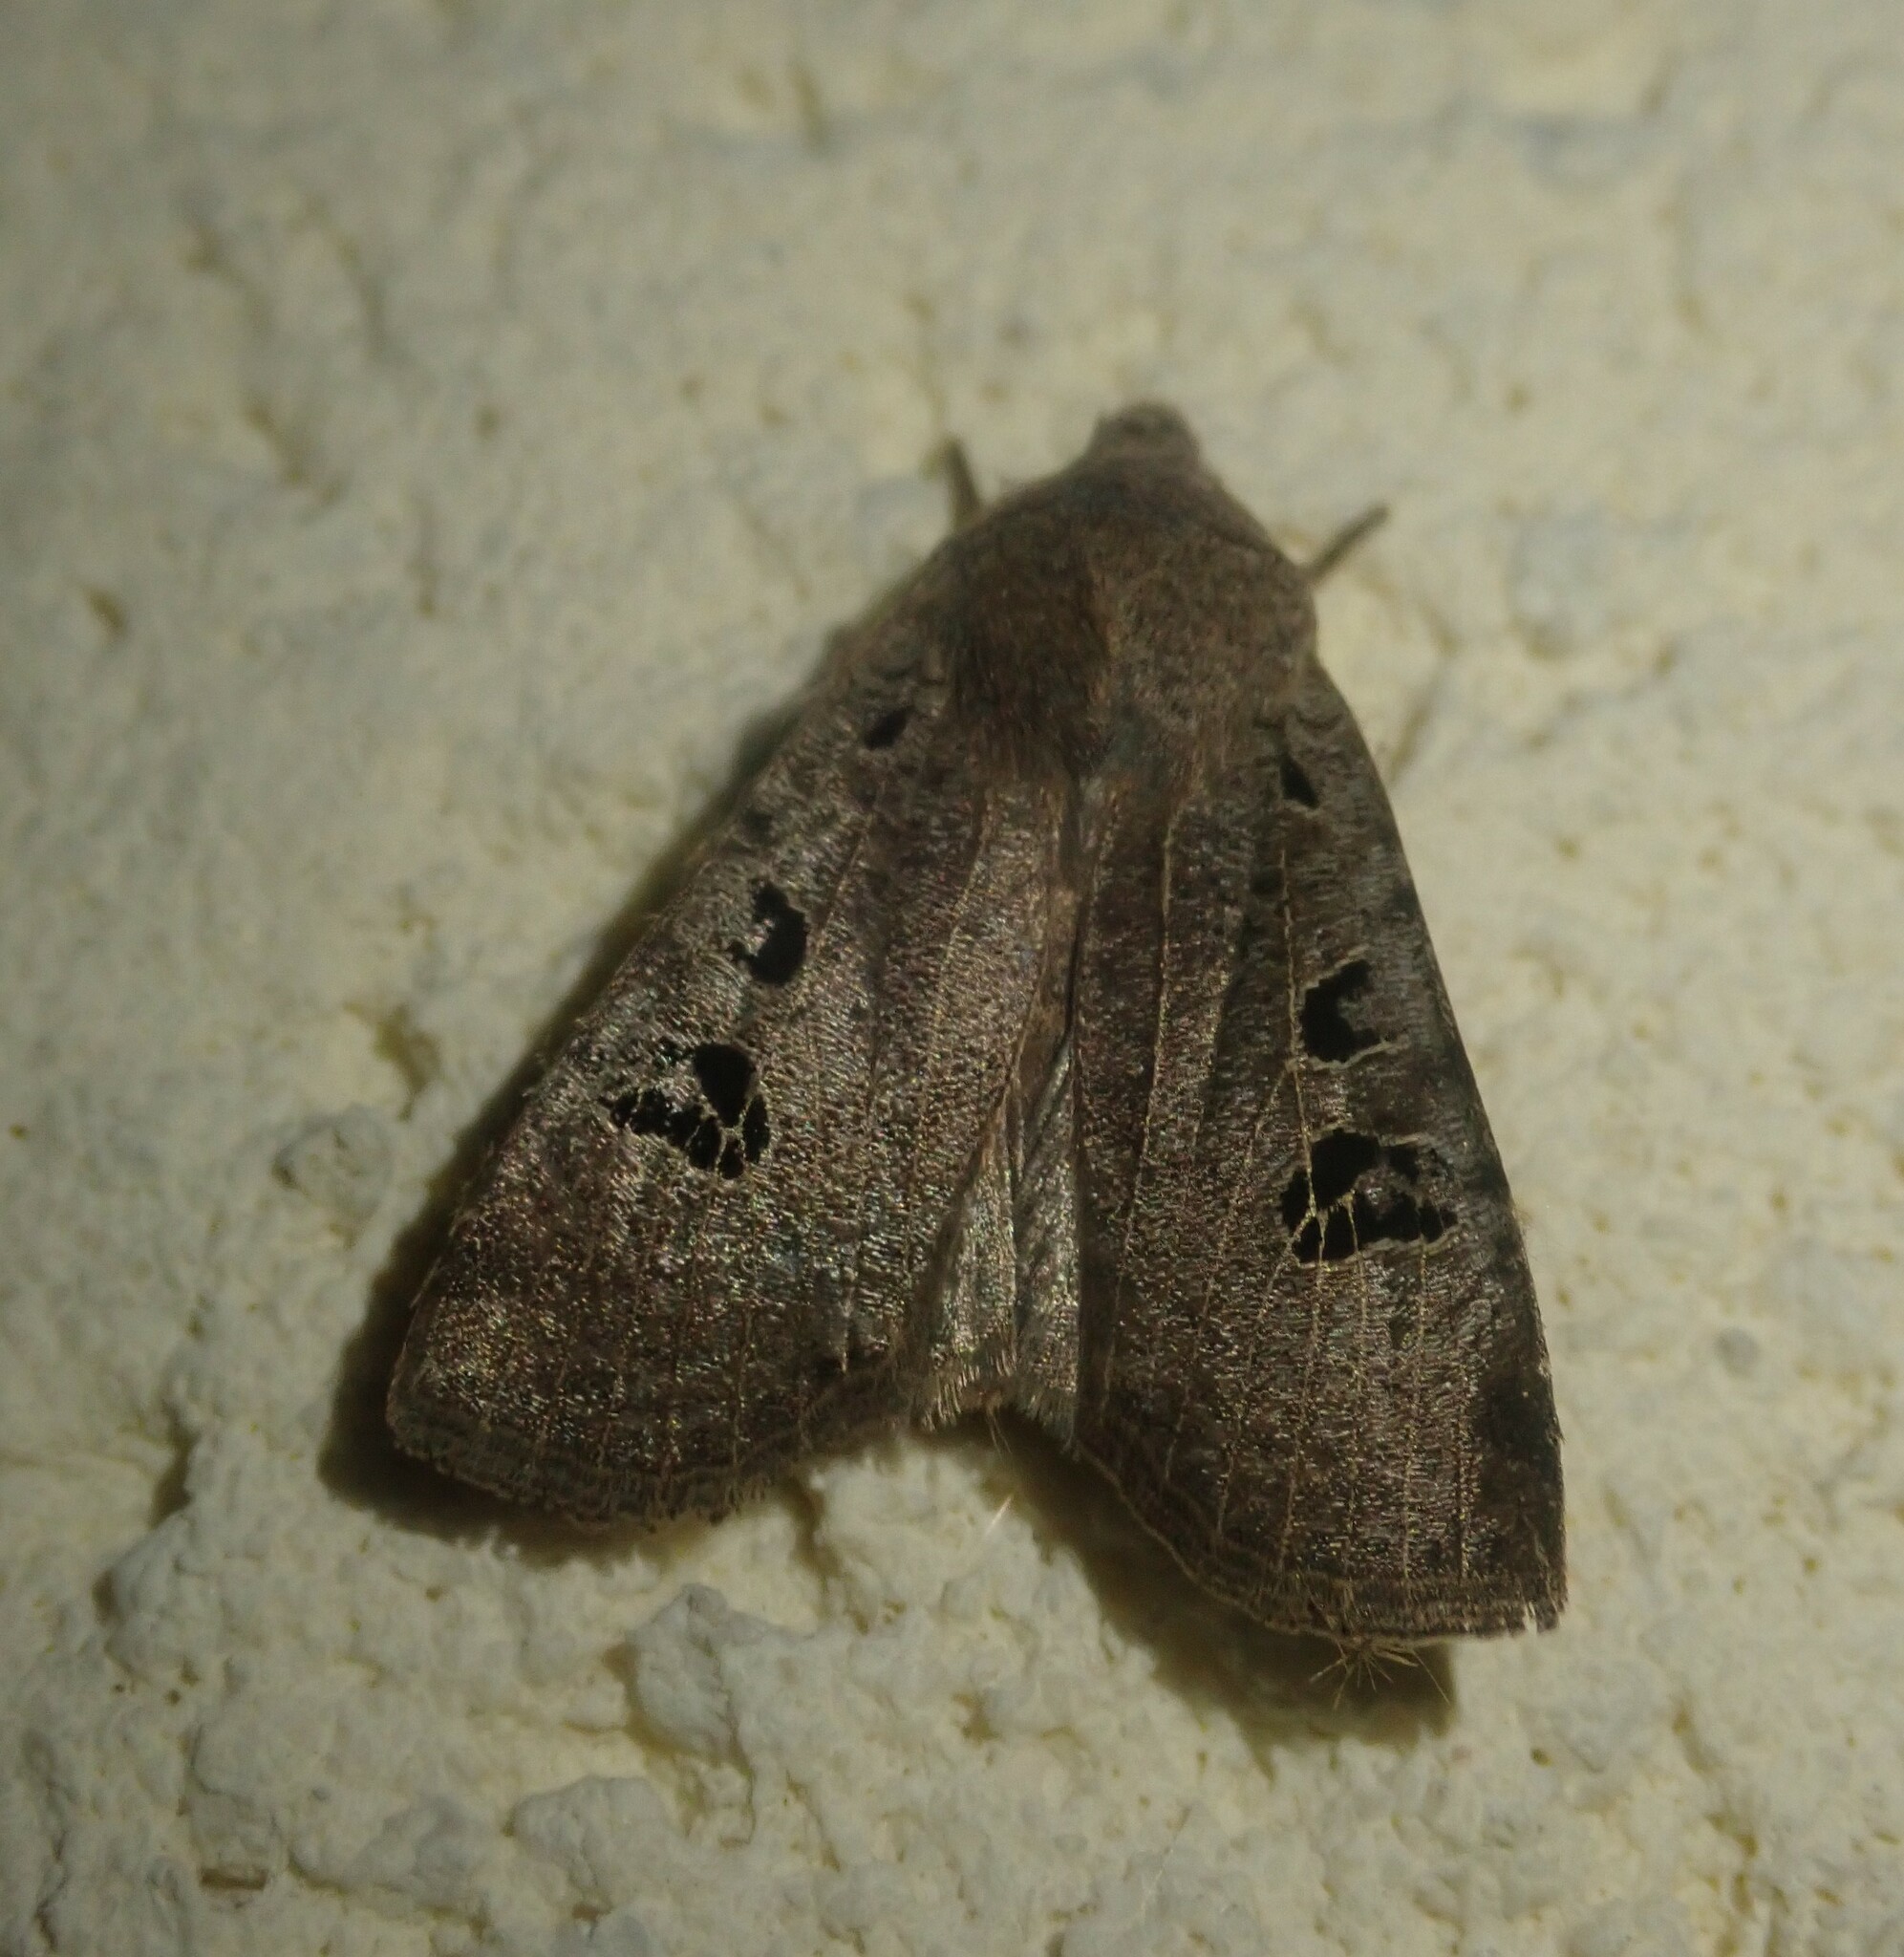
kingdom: Animalia
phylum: Arthropoda
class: Insecta
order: Lepidoptera
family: Noctuidae
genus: Conistra
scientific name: Conistra rubiginosa
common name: Black-spotted chestnut
